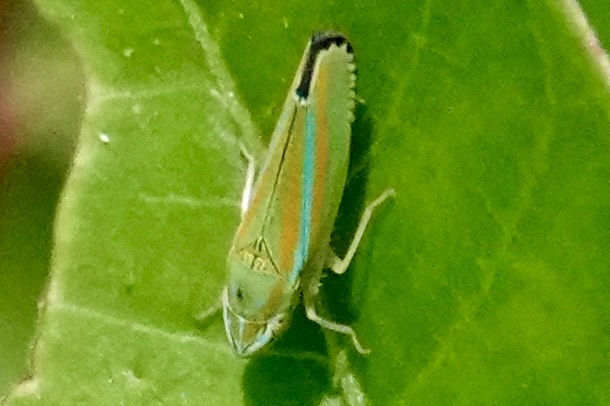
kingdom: Animalia
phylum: Arthropoda
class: Insecta
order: Hemiptera
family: Cicadellidae
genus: Graphocephala
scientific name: Graphocephala versuta
